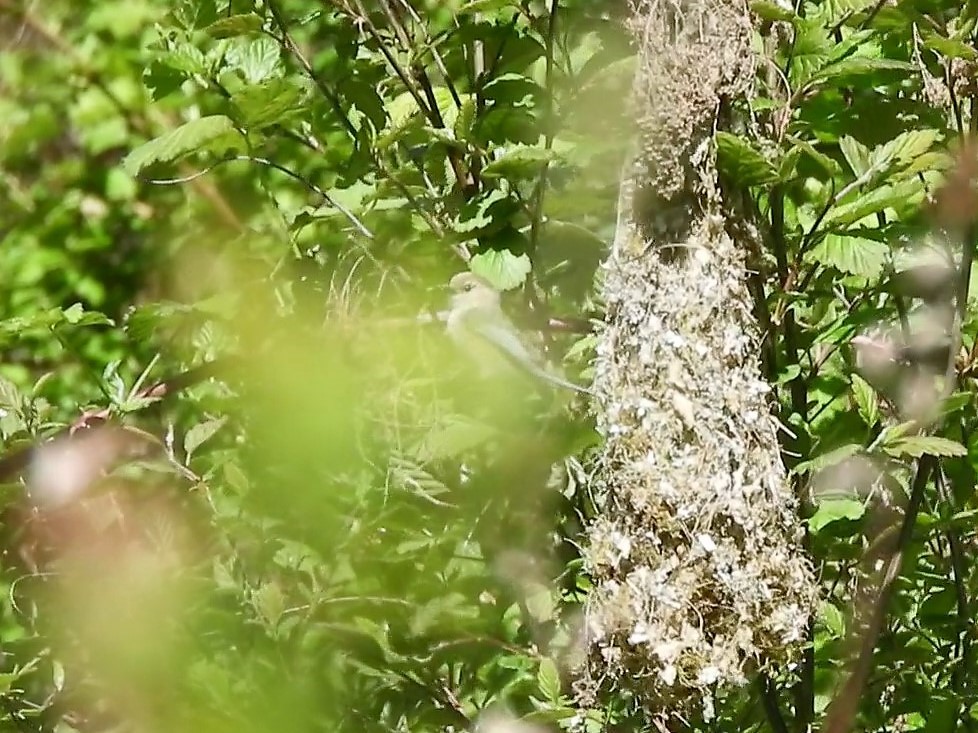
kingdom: Animalia
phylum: Chordata
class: Aves
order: Passeriformes
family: Aegithalidae
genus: Psaltriparus
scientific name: Psaltriparus minimus
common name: American bushtit
